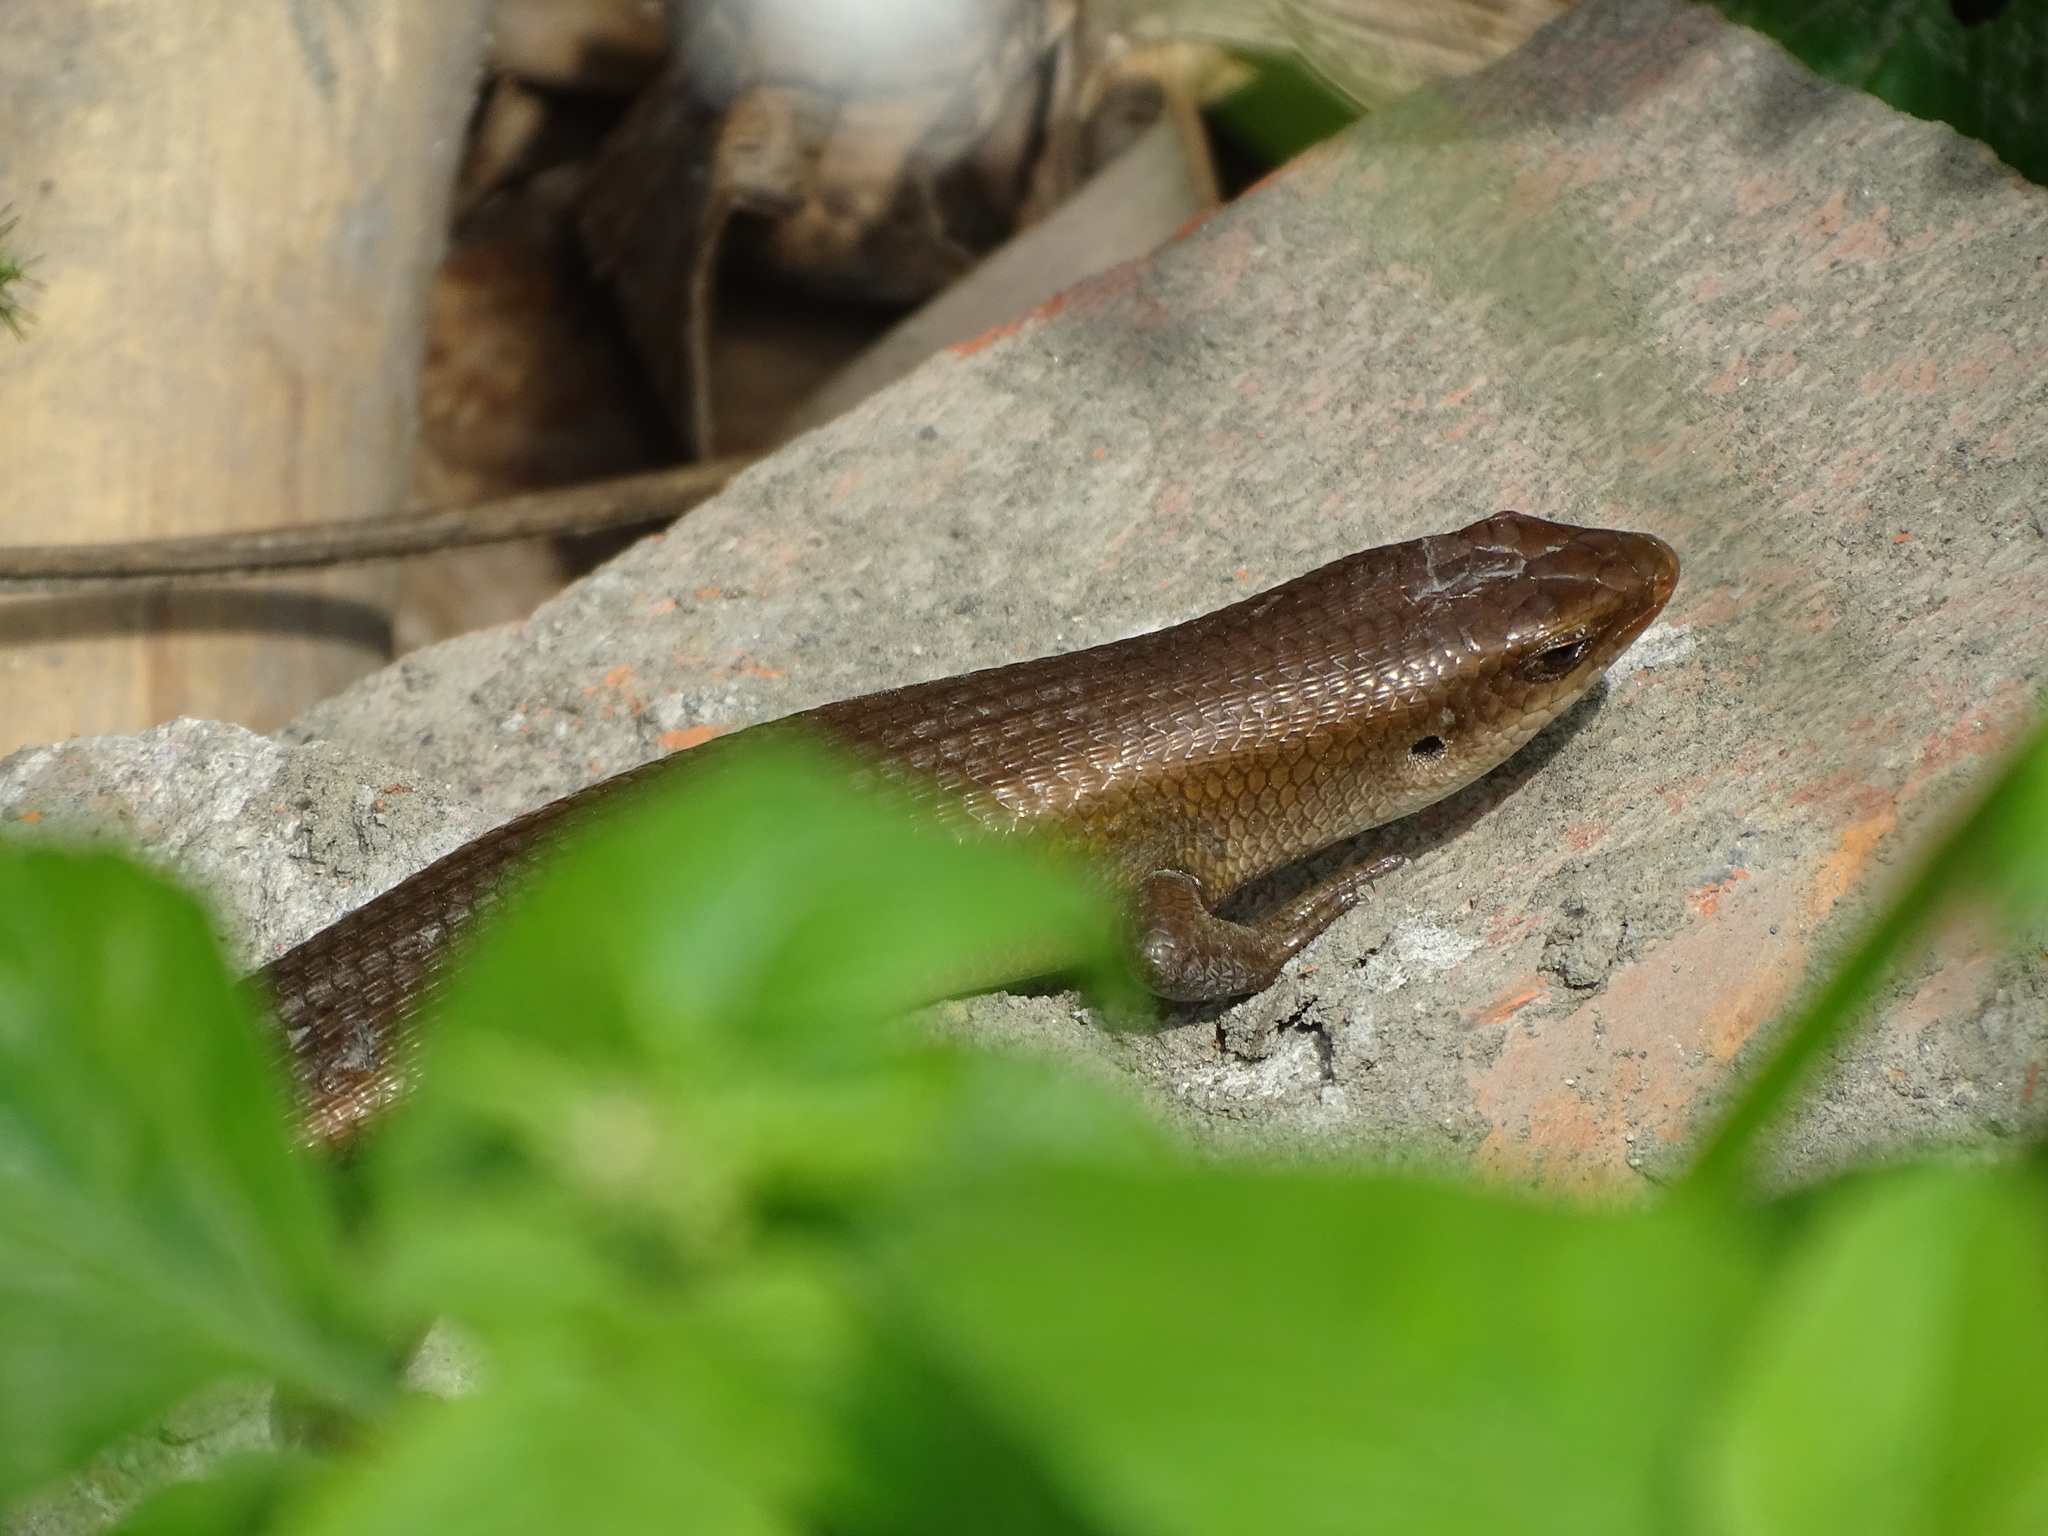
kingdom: Animalia
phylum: Chordata
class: Squamata
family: Scincidae
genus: Eutropis
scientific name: Eutropis multifasciata
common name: Common mabuya
